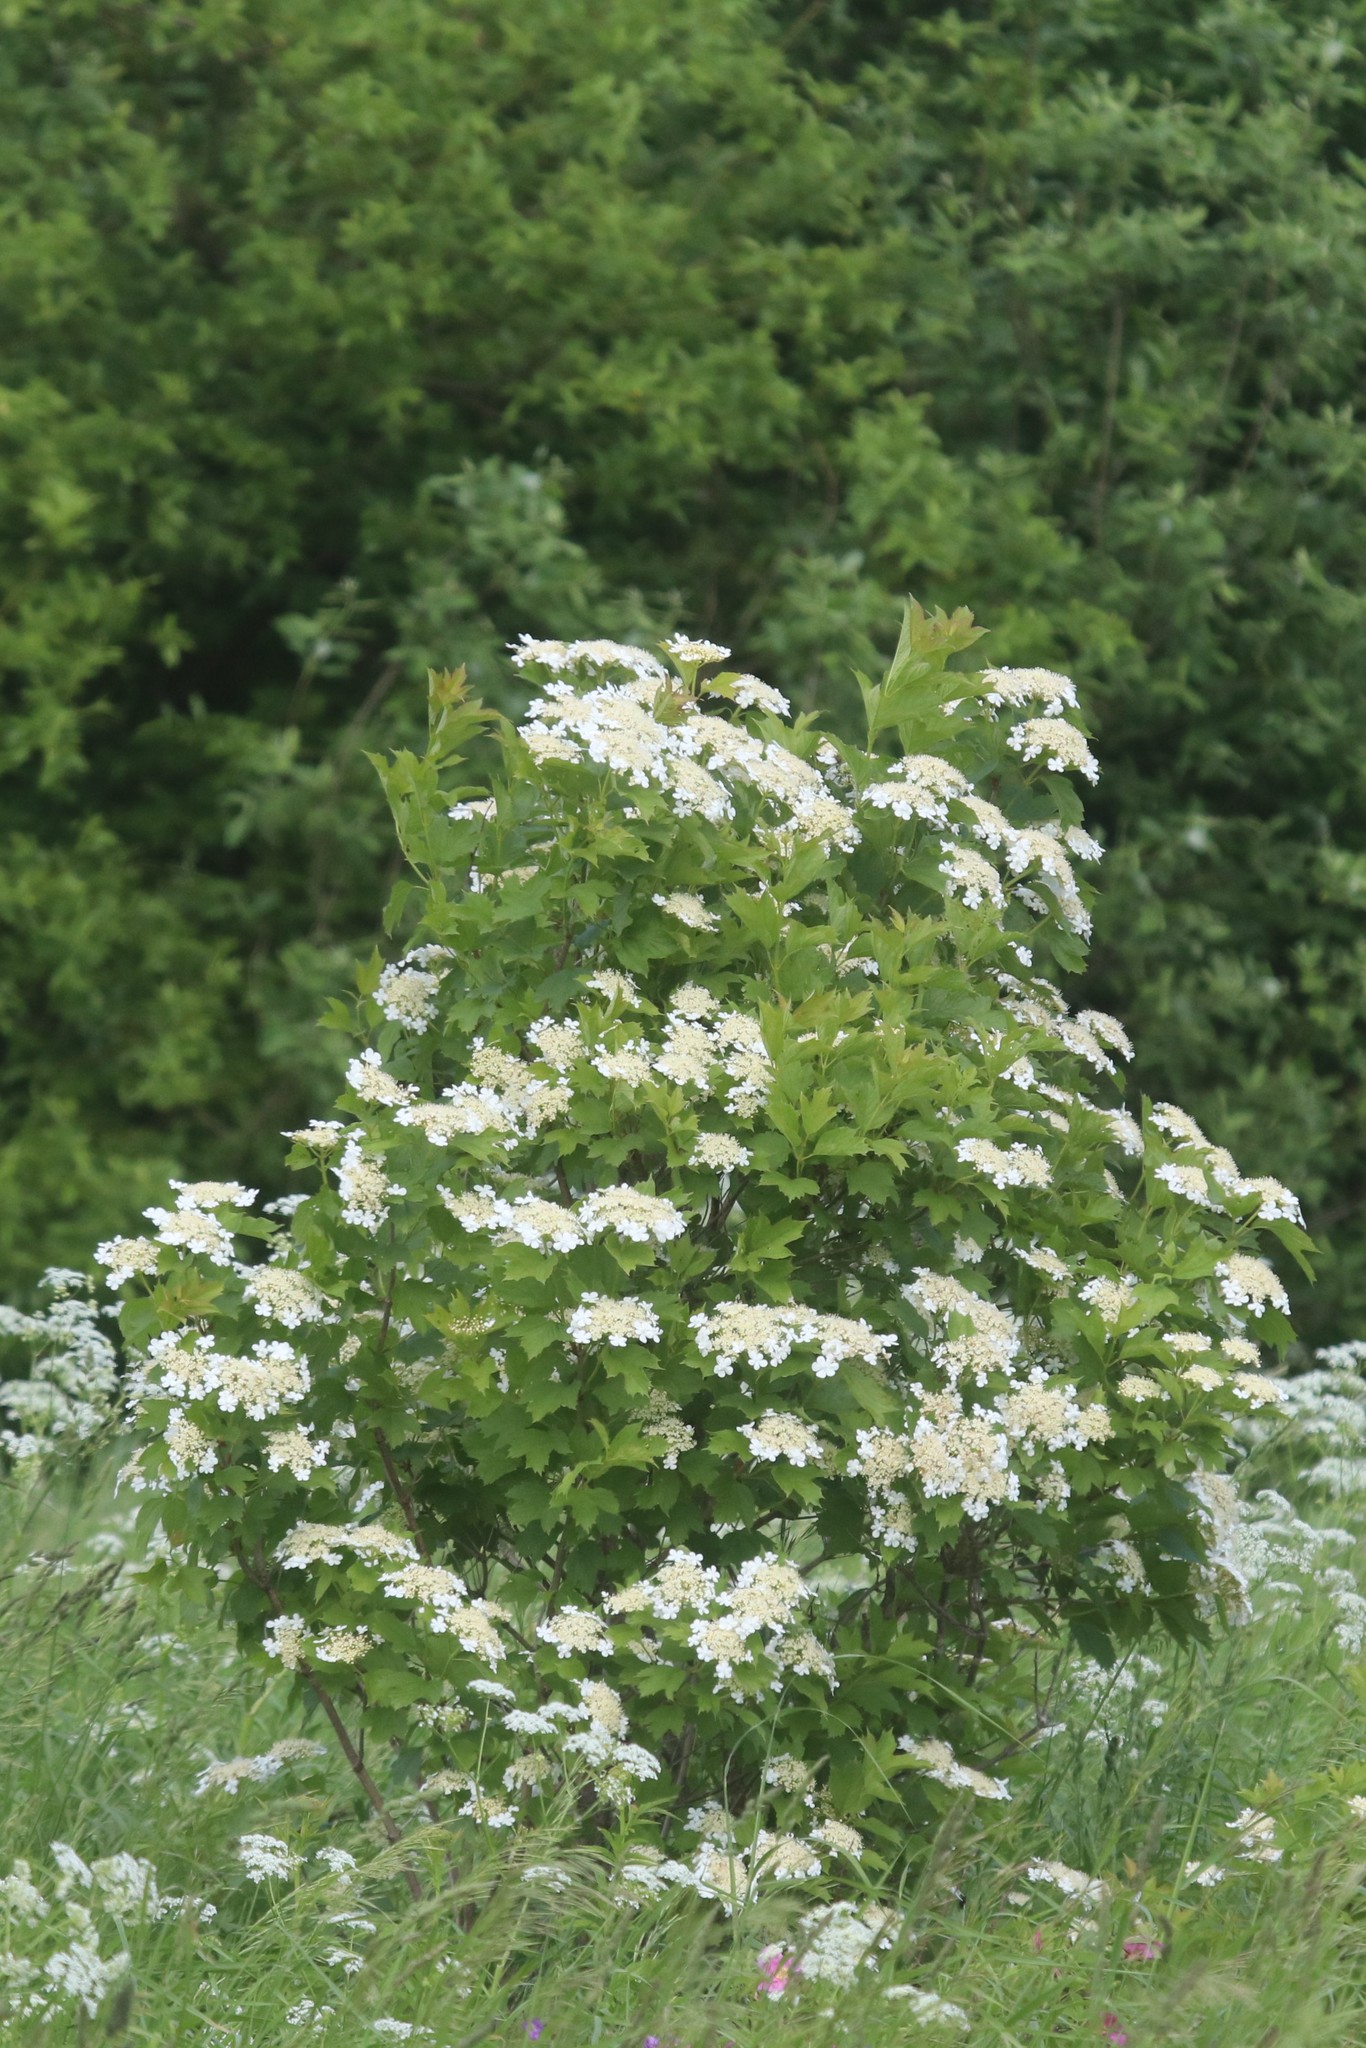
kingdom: Plantae
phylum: Tracheophyta
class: Magnoliopsida
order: Dipsacales
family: Viburnaceae
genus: Viburnum
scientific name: Viburnum opulus
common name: Guelder-rose
